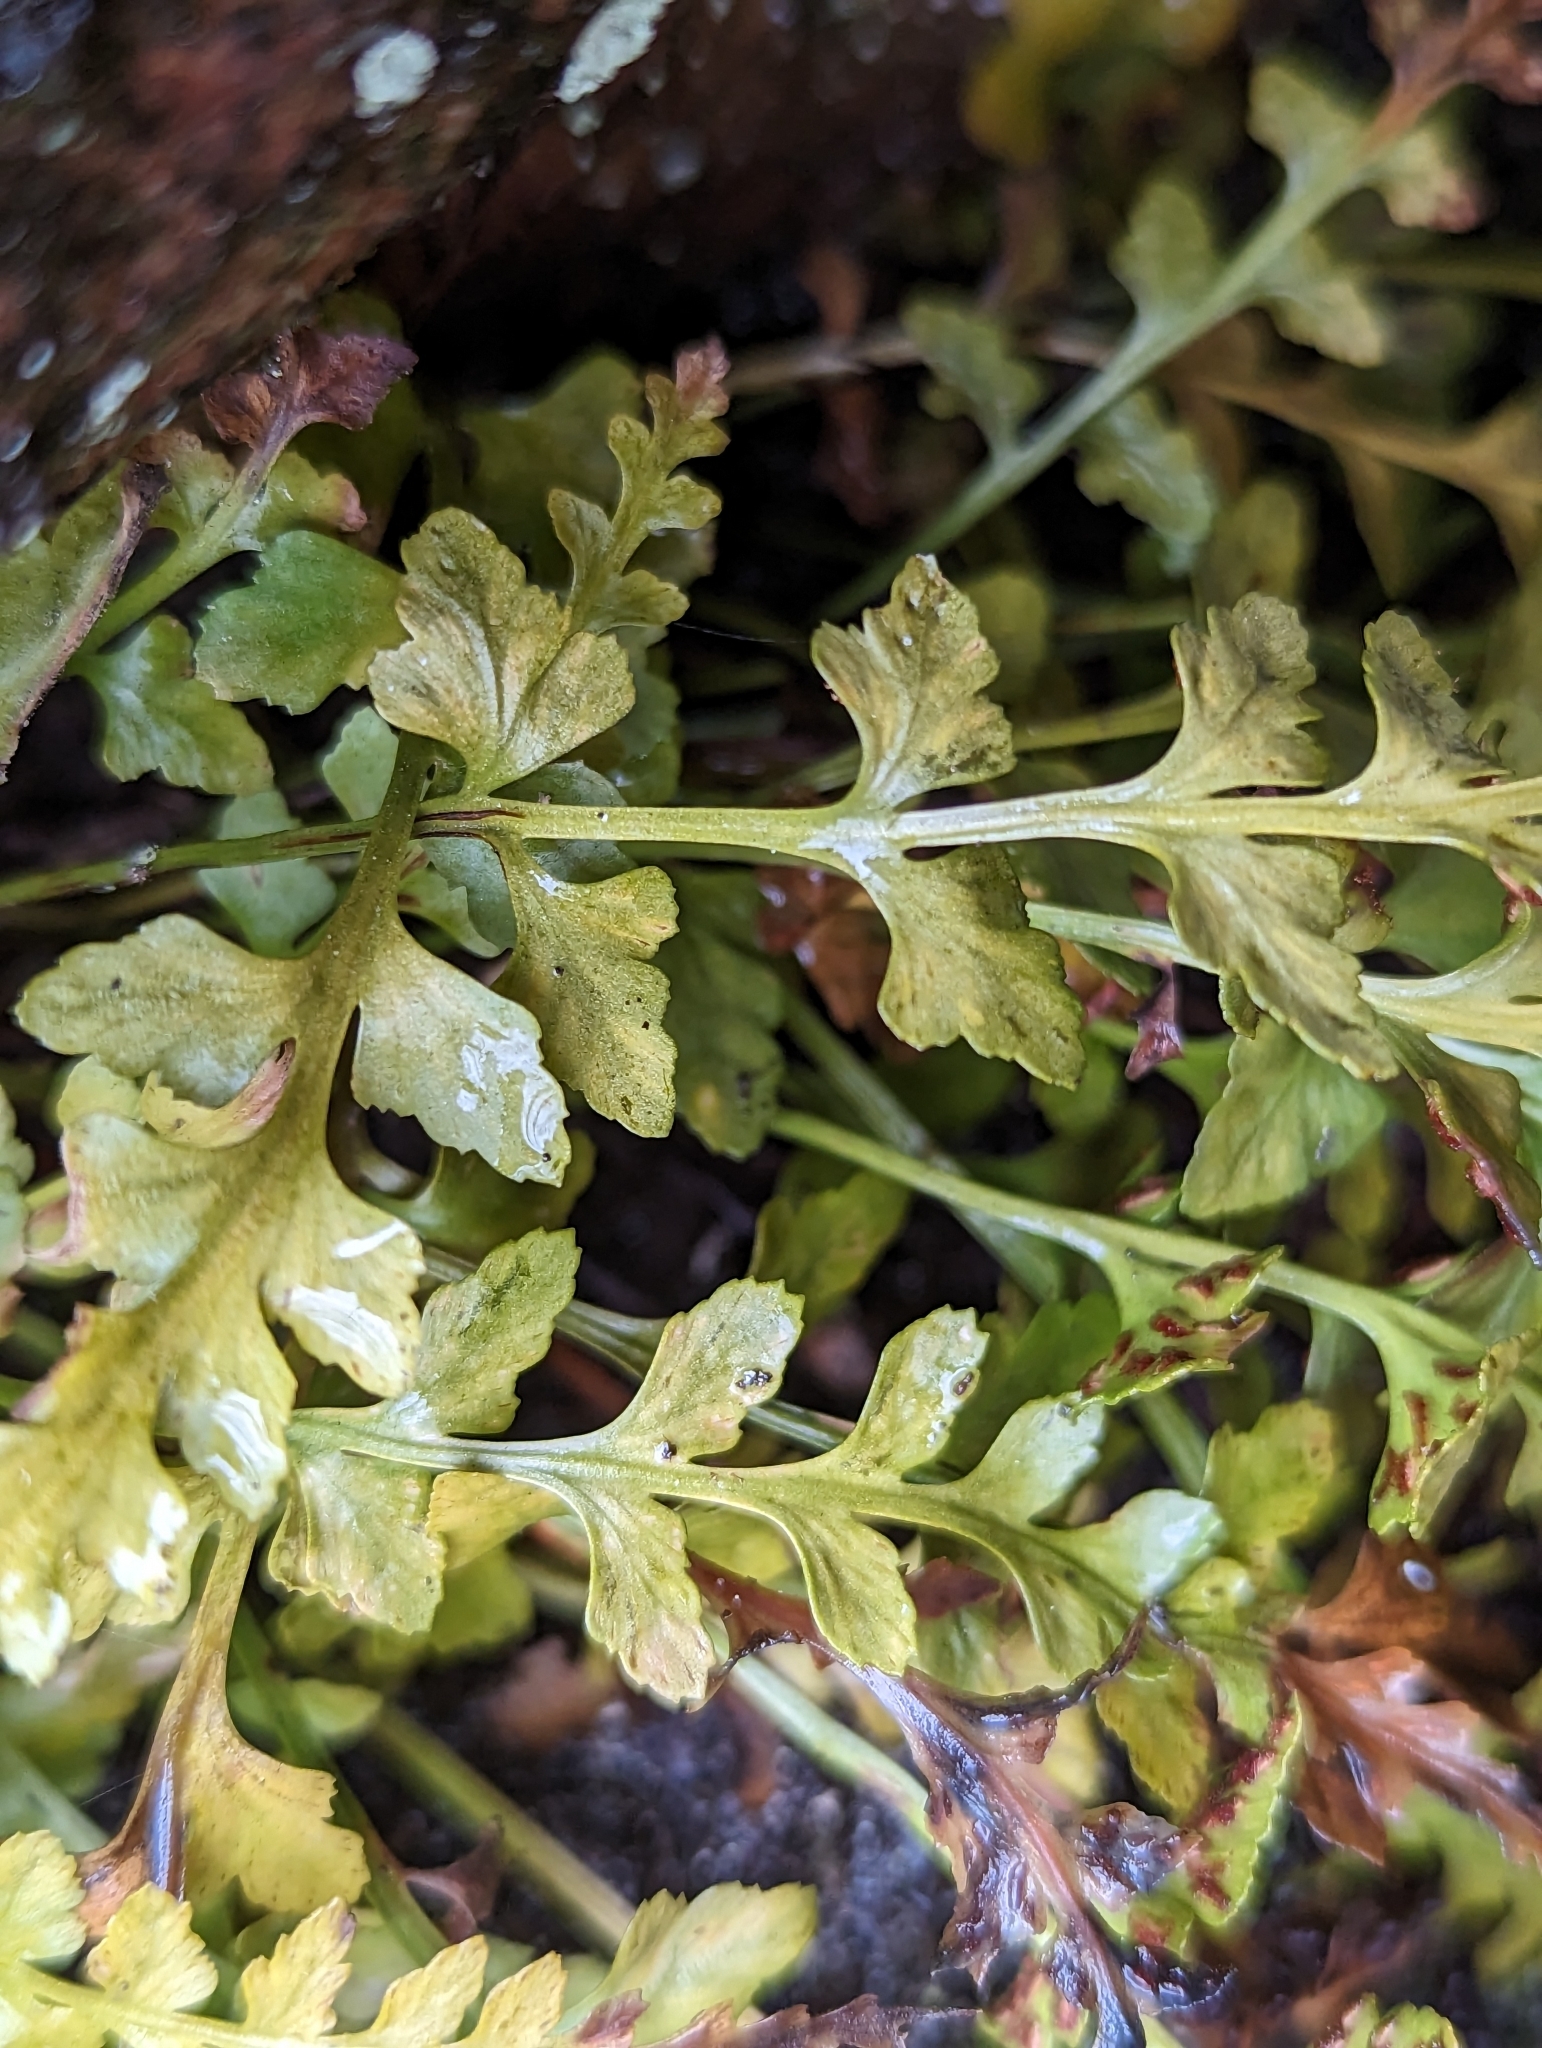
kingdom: Plantae
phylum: Tracheophyta
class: Polypodiopsida
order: Polypodiales
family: Aspleniaceae
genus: Asplenium
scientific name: Asplenium trudellii
